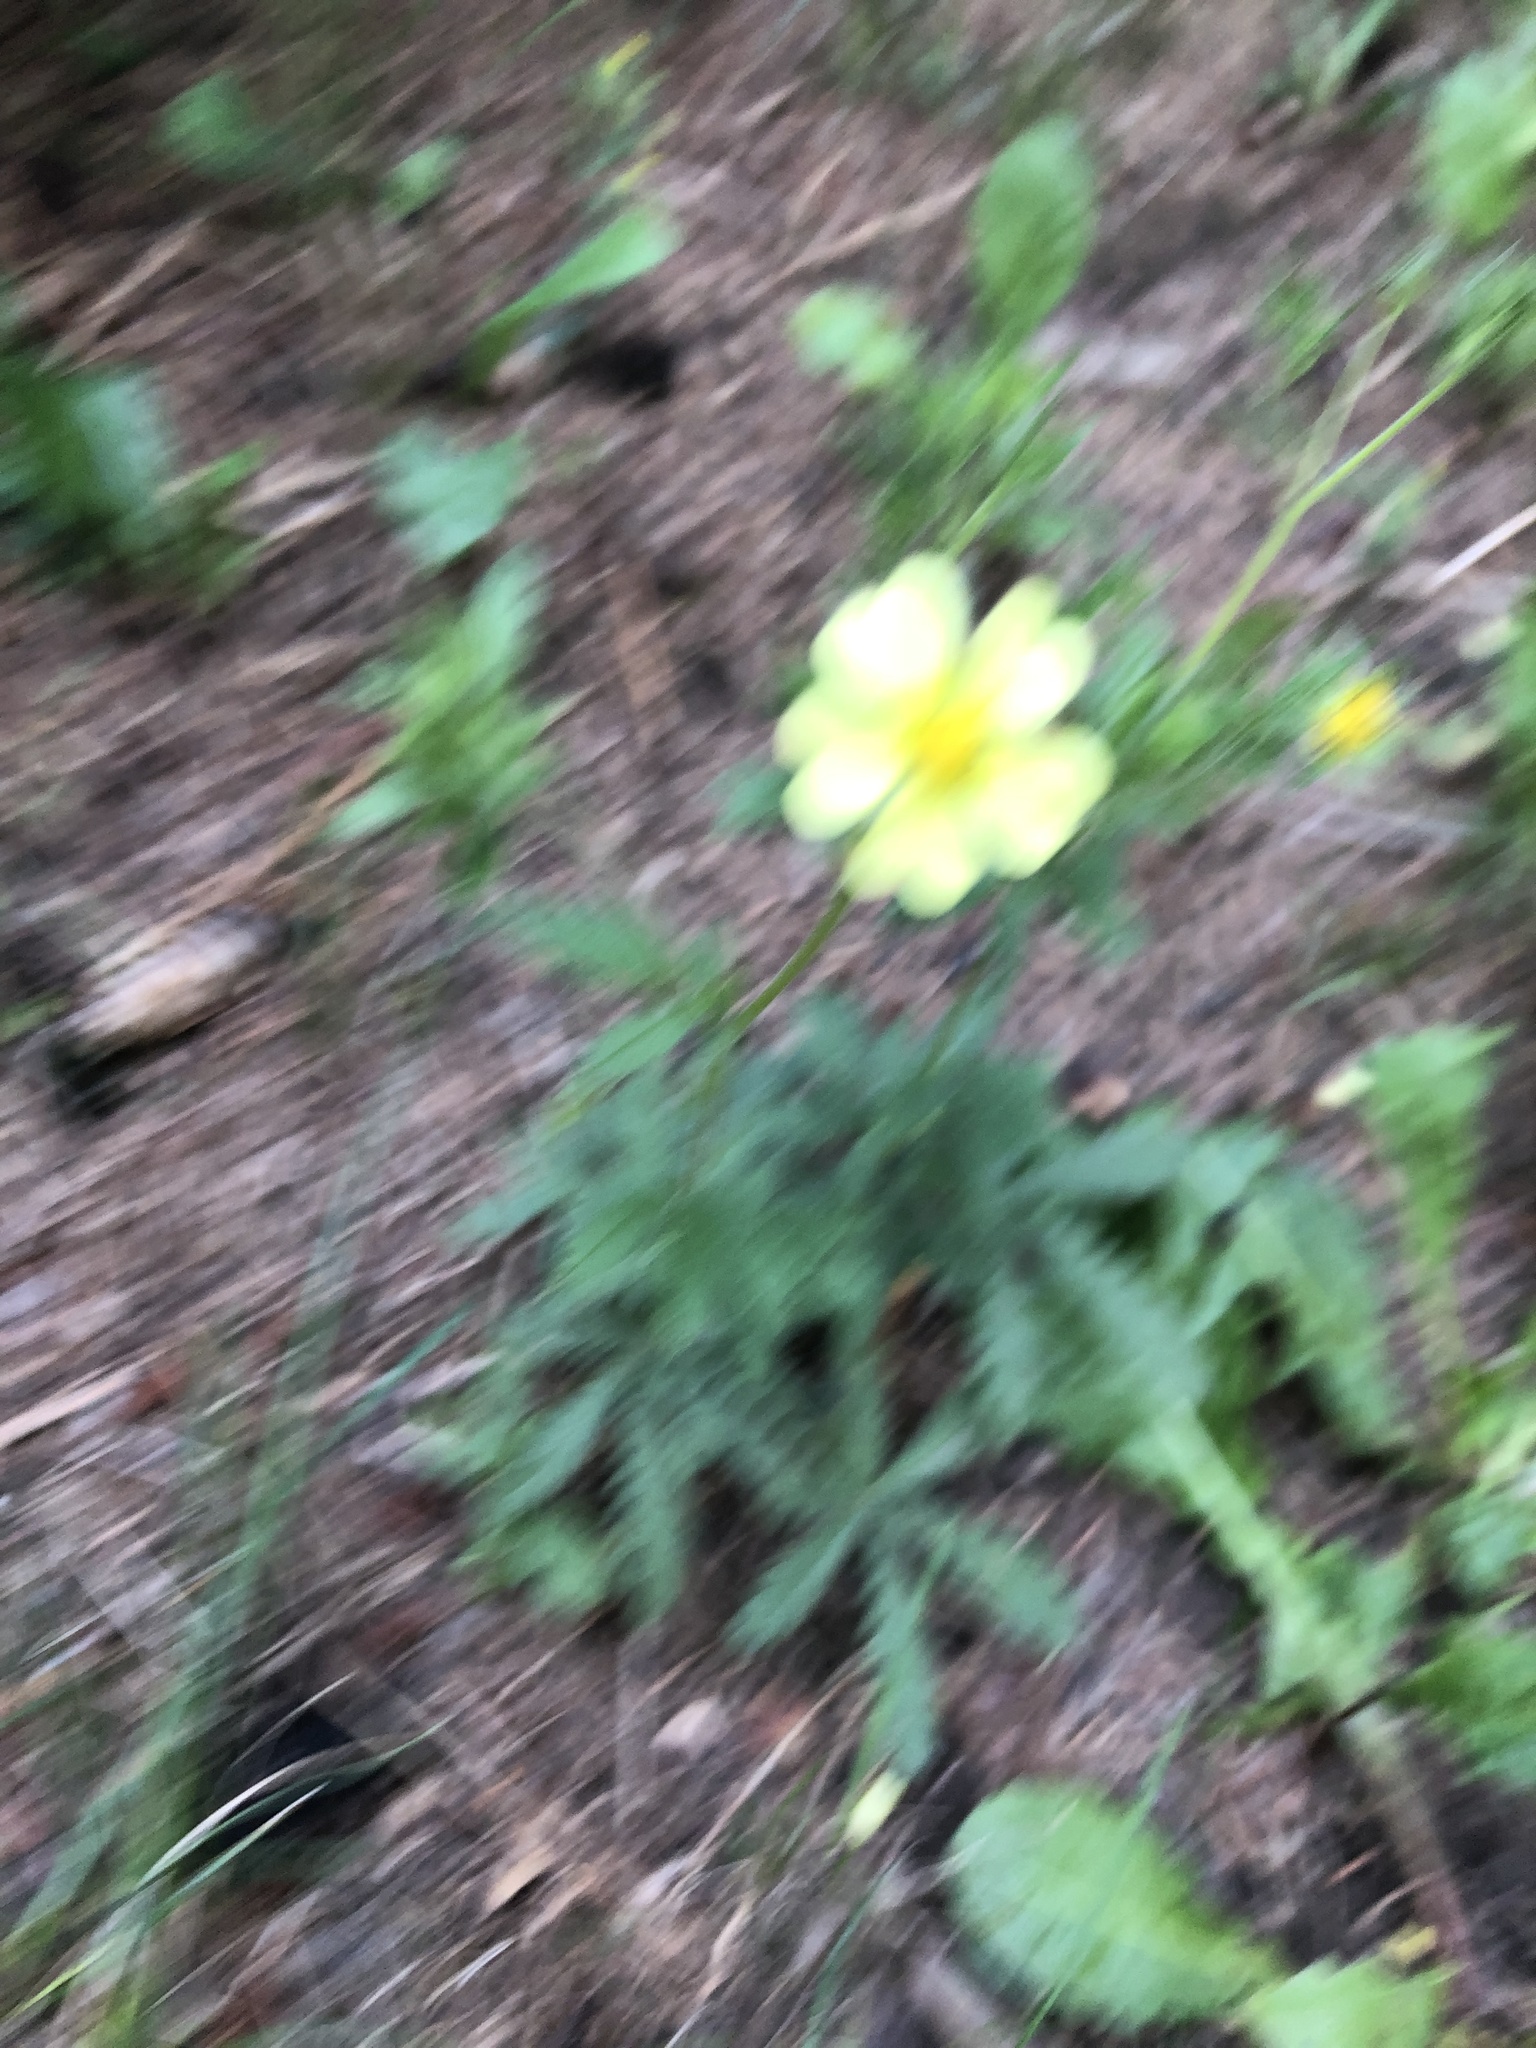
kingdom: Plantae
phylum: Tracheophyta
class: Magnoliopsida
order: Rosales
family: Rosaceae
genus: Potentilla
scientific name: Potentilla recta
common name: Sulphur cinquefoil
